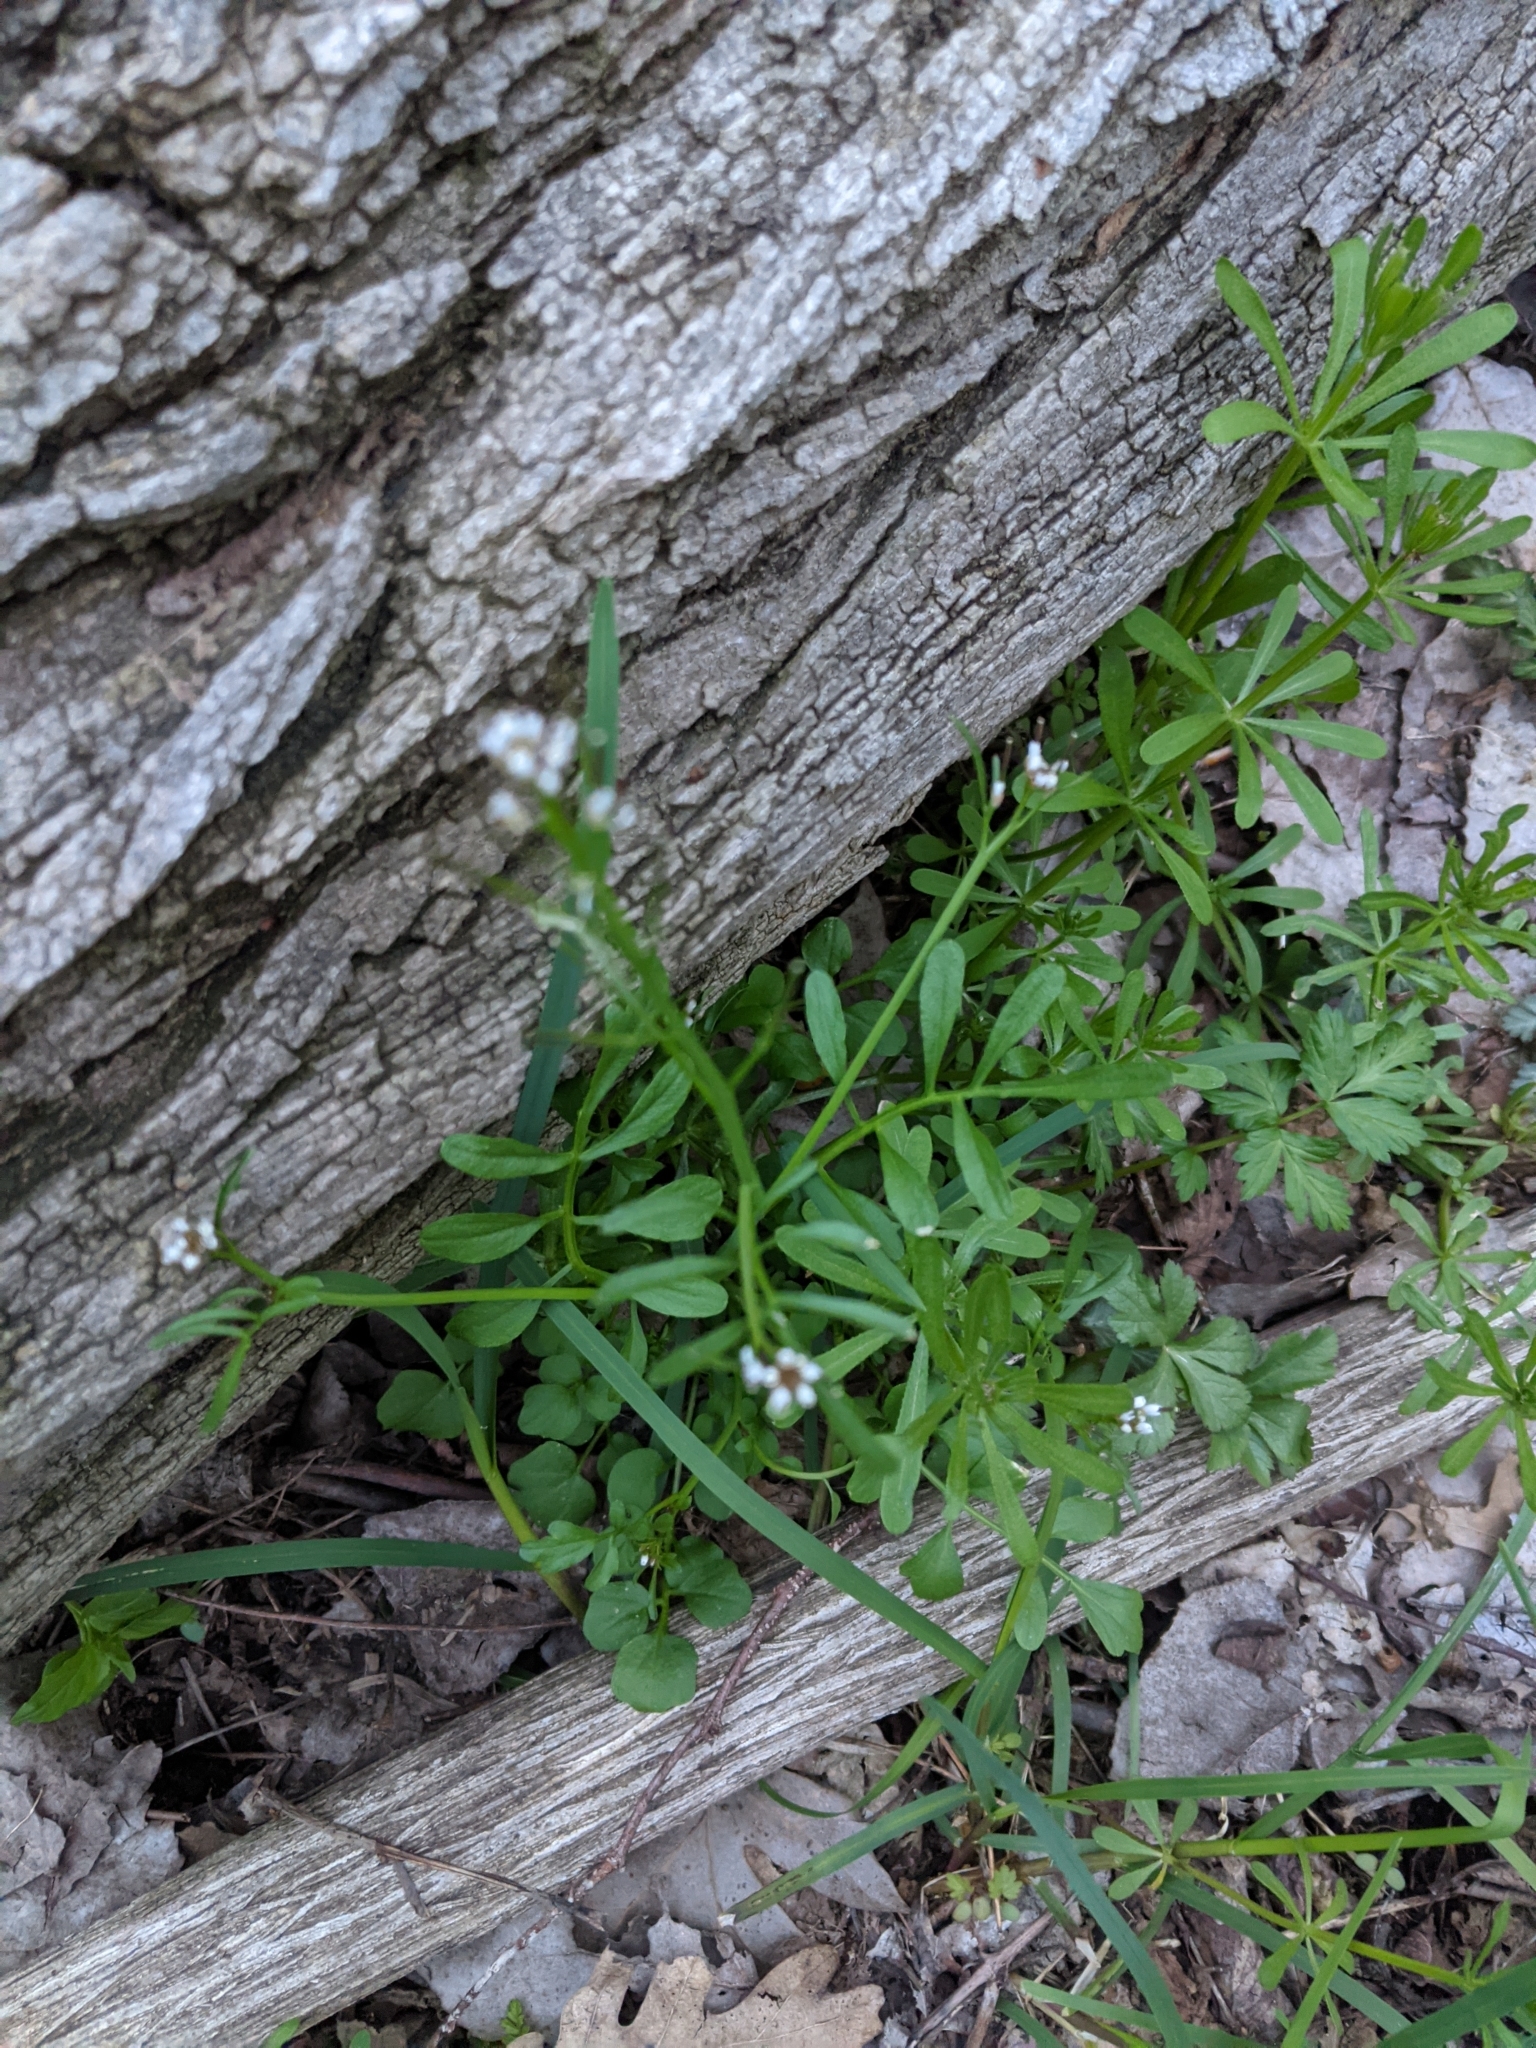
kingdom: Plantae
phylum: Tracheophyta
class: Magnoliopsida
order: Brassicales
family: Brassicaceae
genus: Cardamine
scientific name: Cardamine pensylvanica
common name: Pennsylvania bittercress
